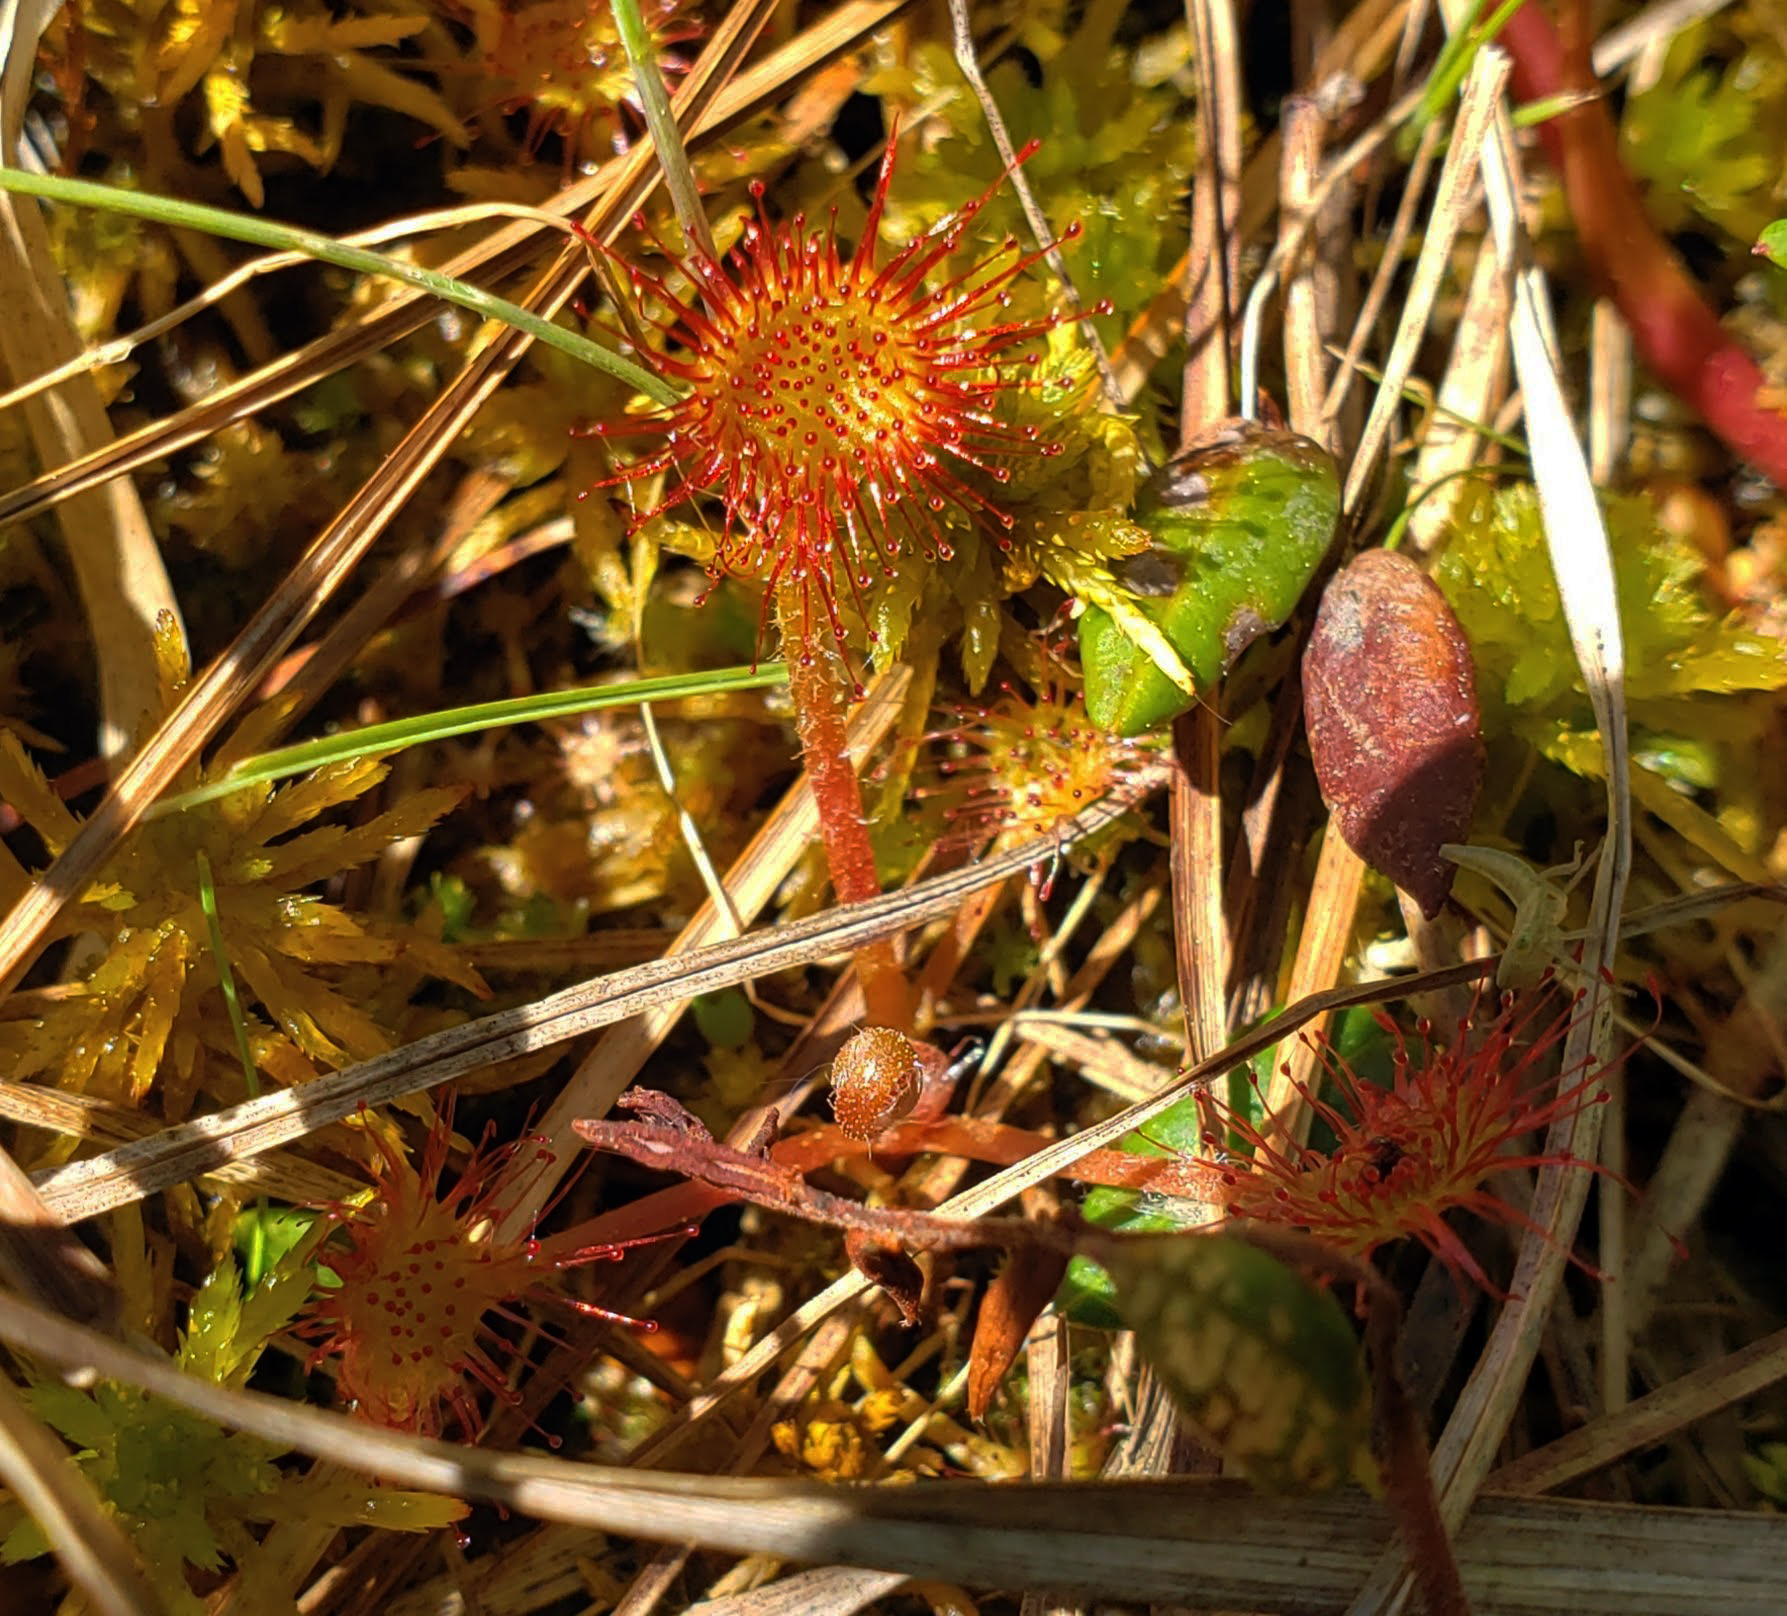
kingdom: Plantae
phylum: Tracheophyta
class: Magnoliopsida
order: Caryophyllales
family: Droseraceae
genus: Drosera
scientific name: Drosera rotundifolia
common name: Round-leaved sundew
